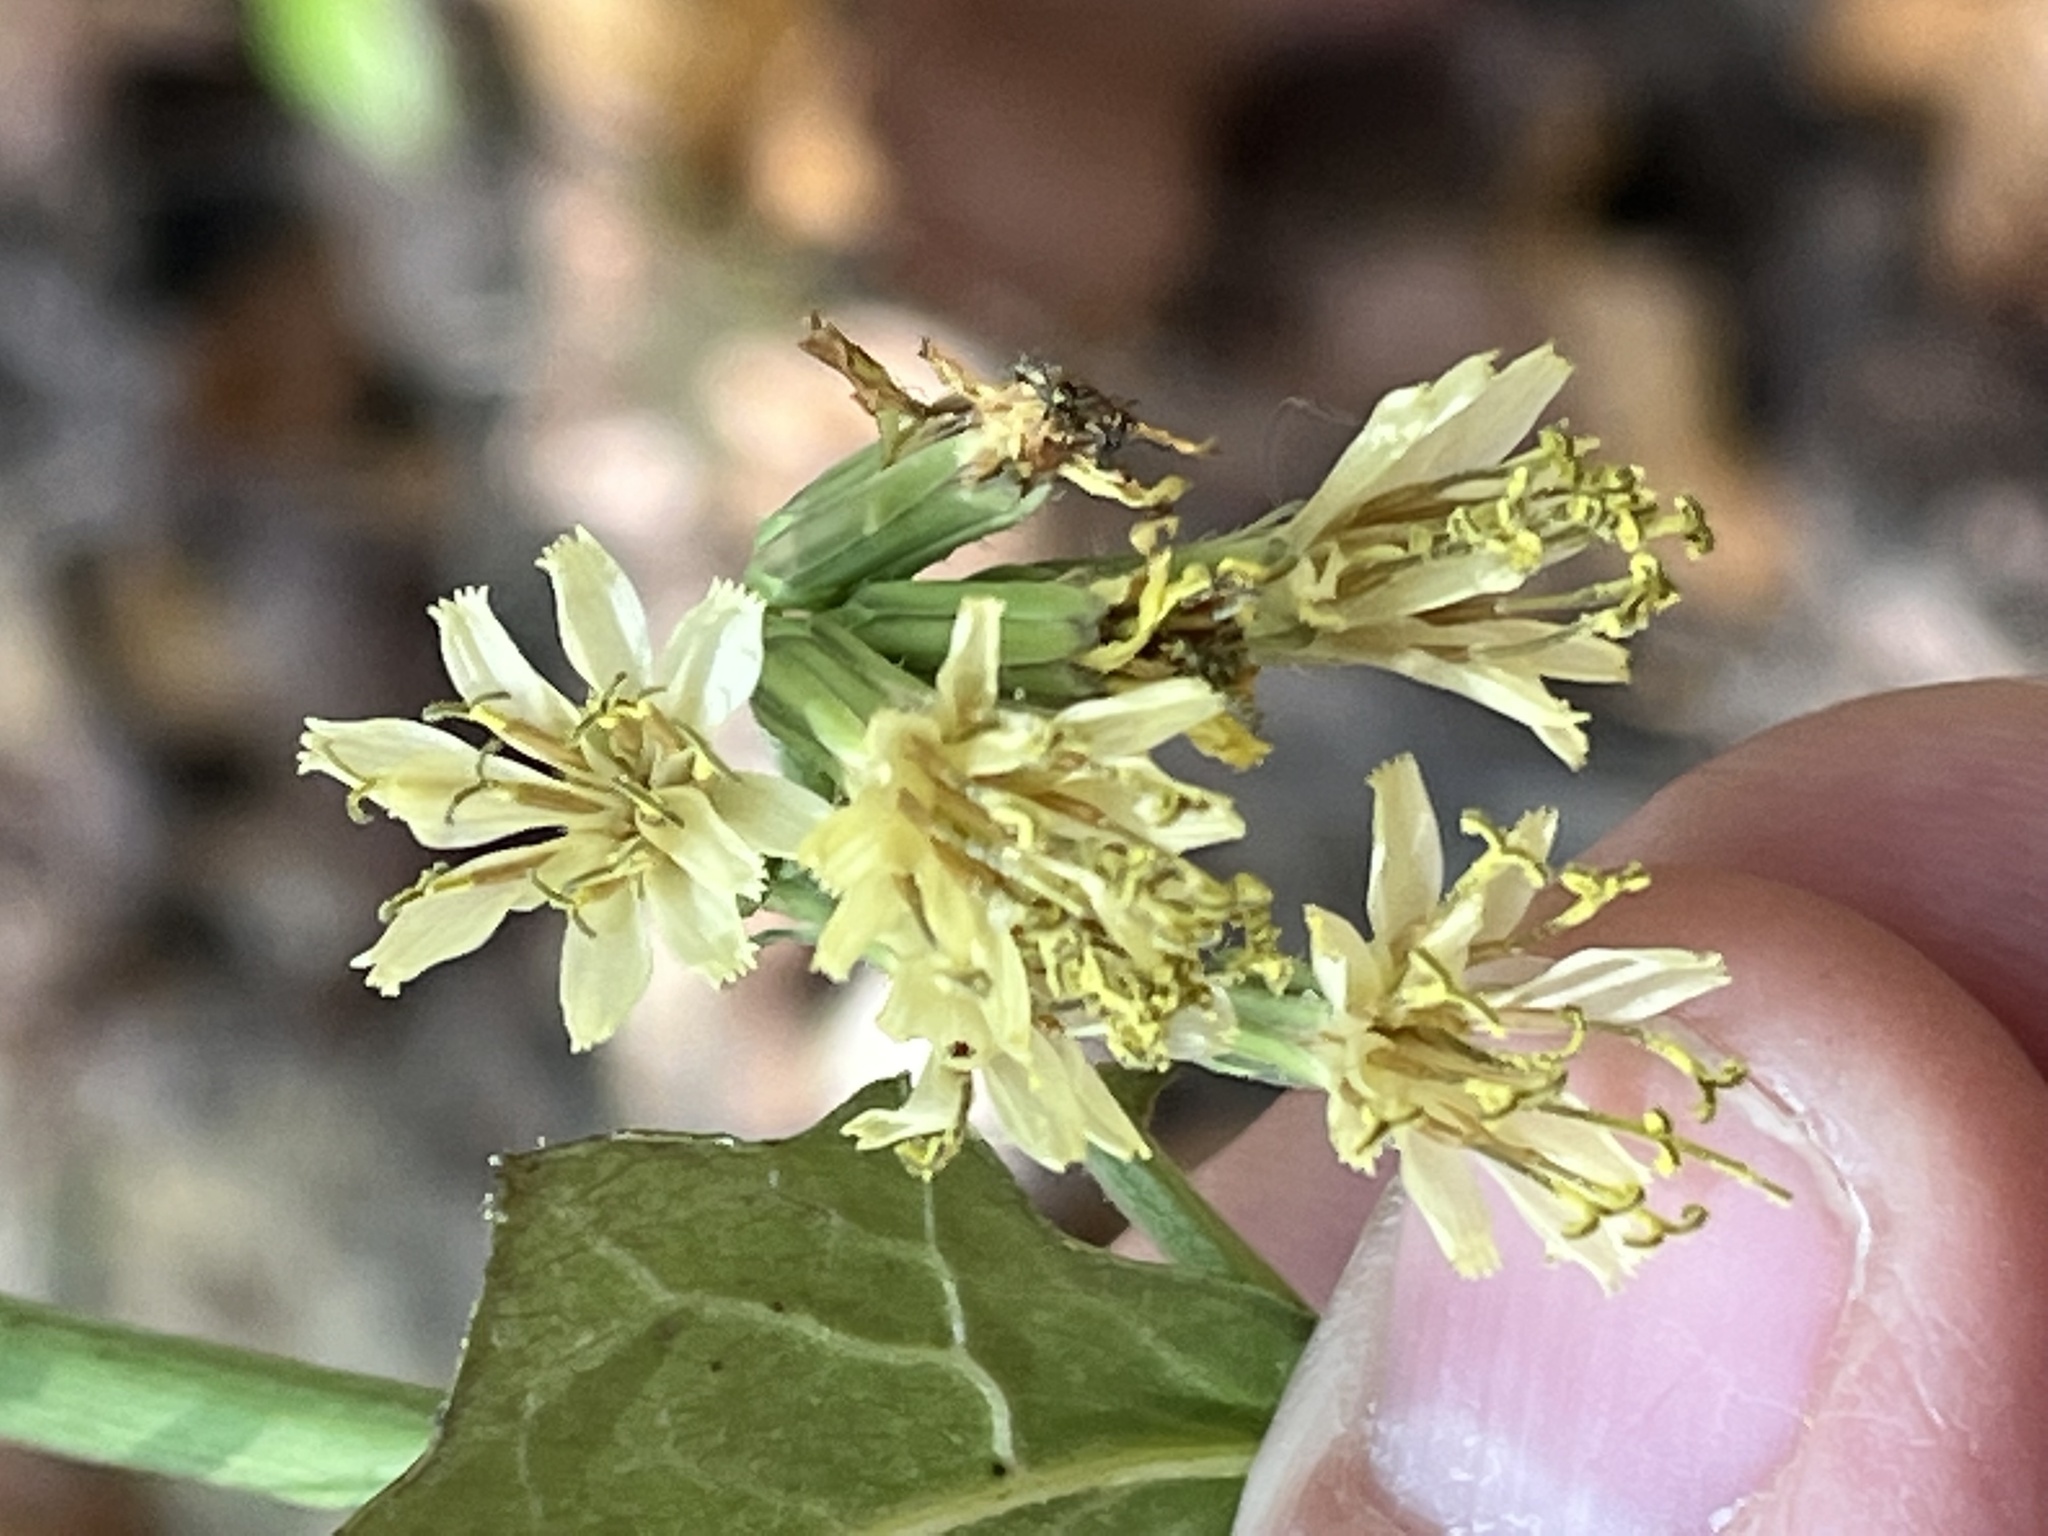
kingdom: Plantae
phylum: Tracheophyta
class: Magnoliopsida
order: Asterales
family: Asteraceae
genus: Nabalus
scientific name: Nabalus serpentarius
